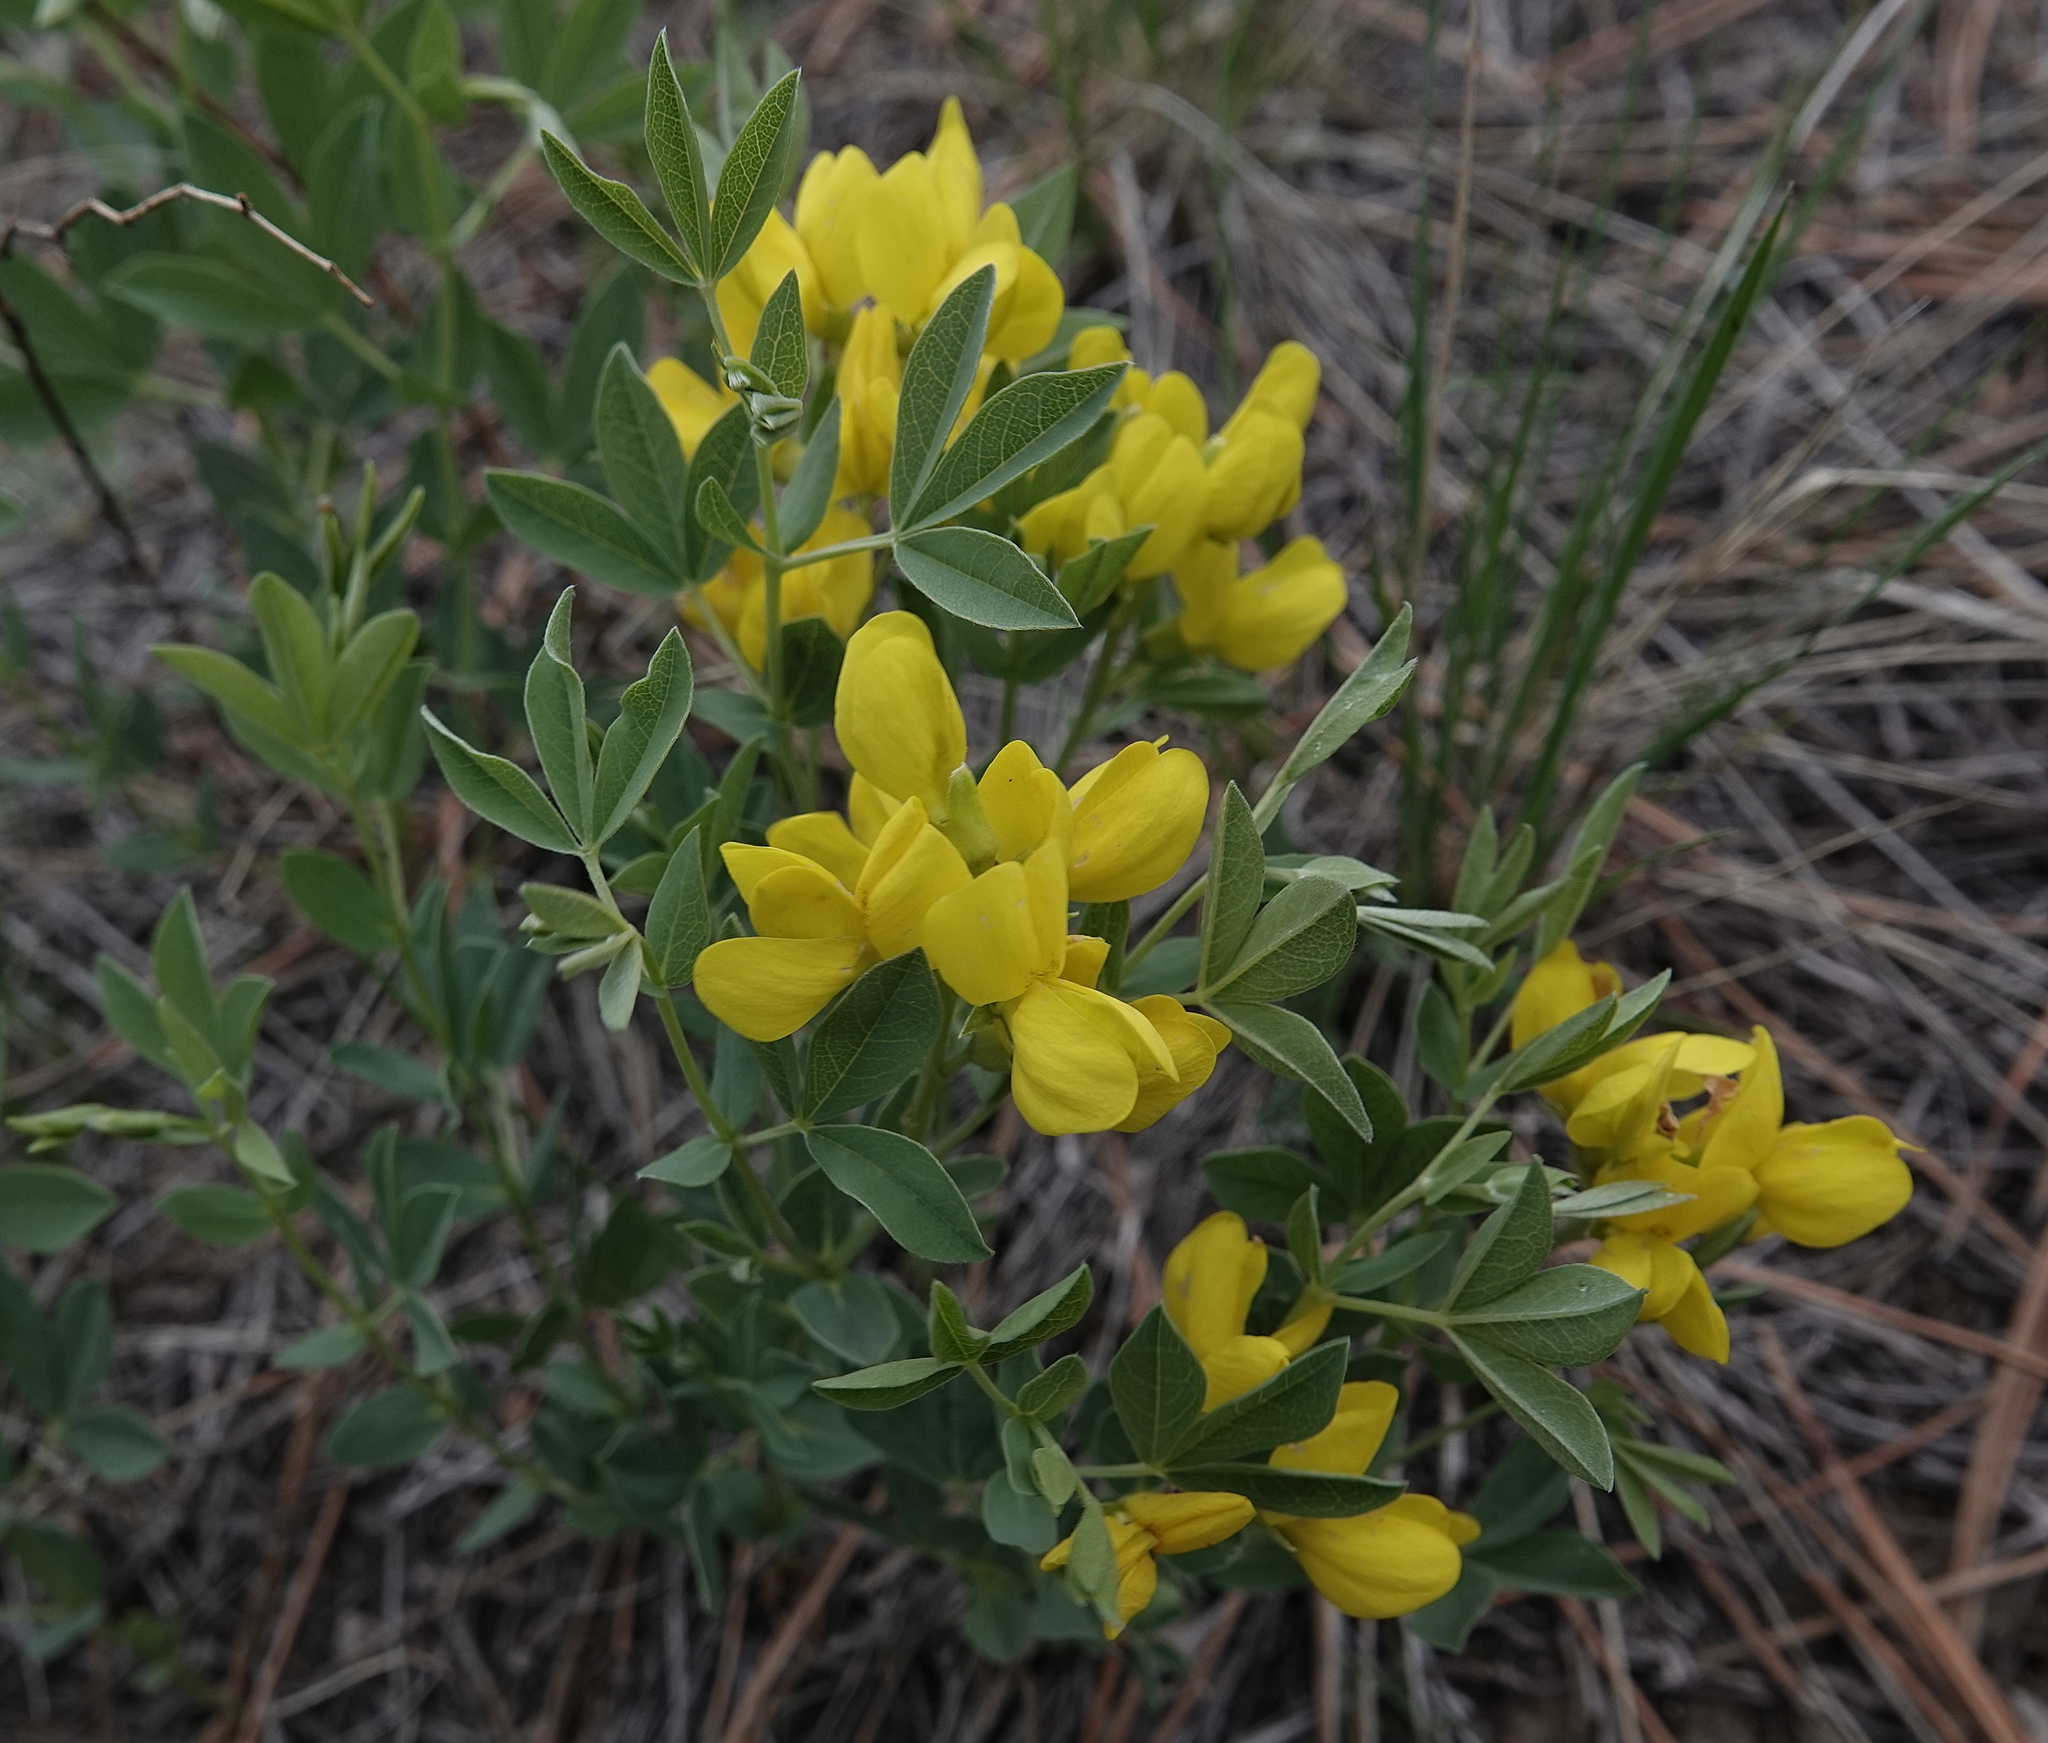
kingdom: Plantae
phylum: Tracheophyta
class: Magnoliopsida
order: Fabales
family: Fabaceae
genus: Thermopsis
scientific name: Thermopsis rhombifolia
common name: Circle-pod-pea
